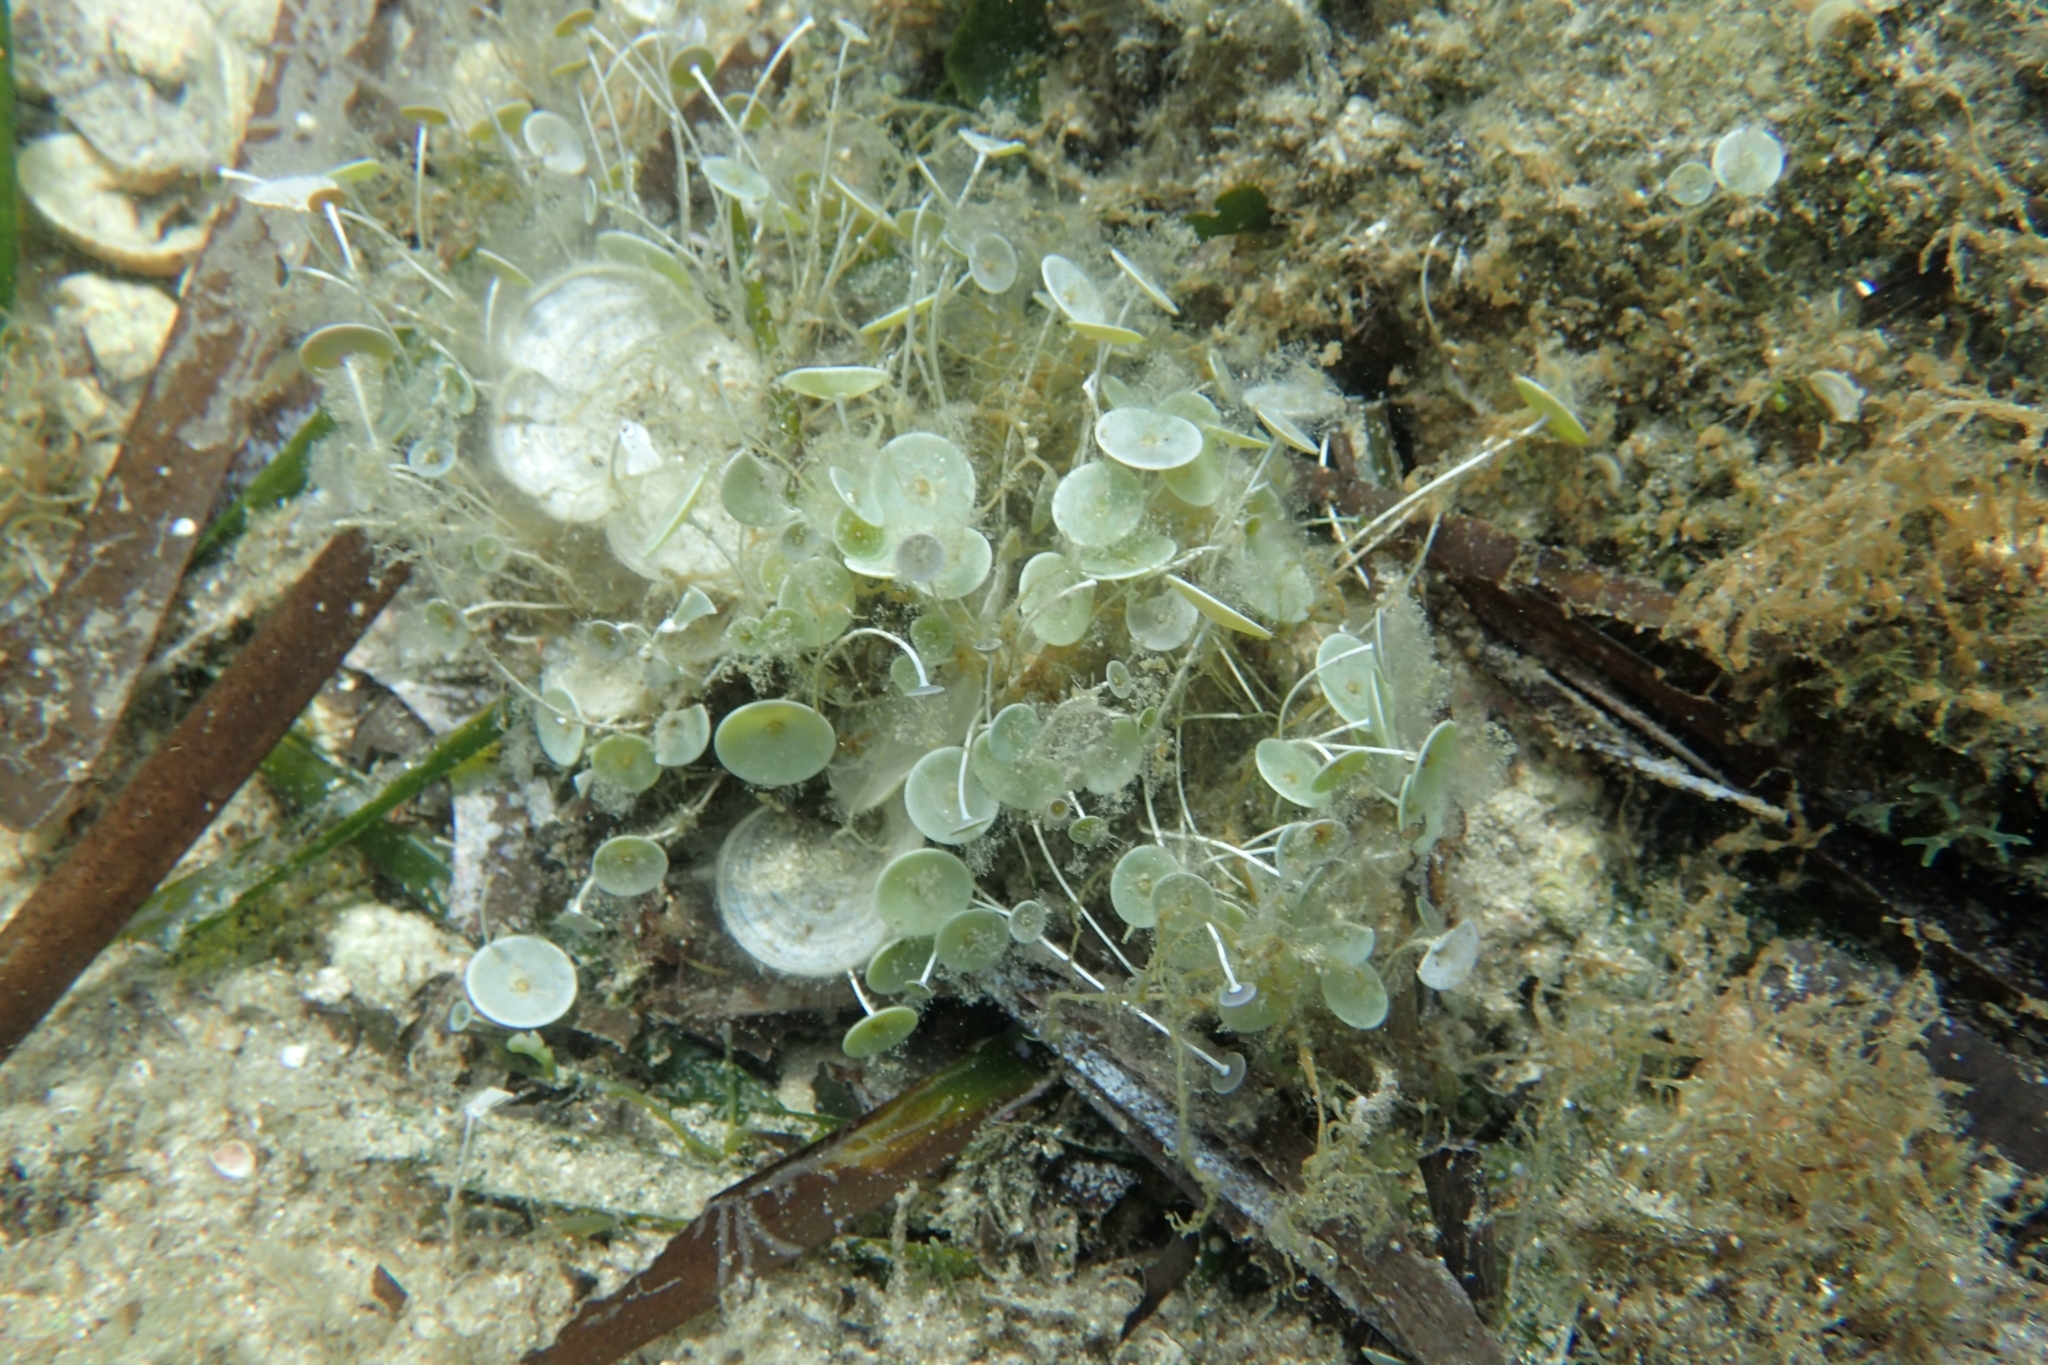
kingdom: Plantae
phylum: Chlorophyta
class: Ulvophyceae
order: Dasycladales
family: Polyphysaceae
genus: Acetabularia
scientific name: Acetabularia acetabulum
